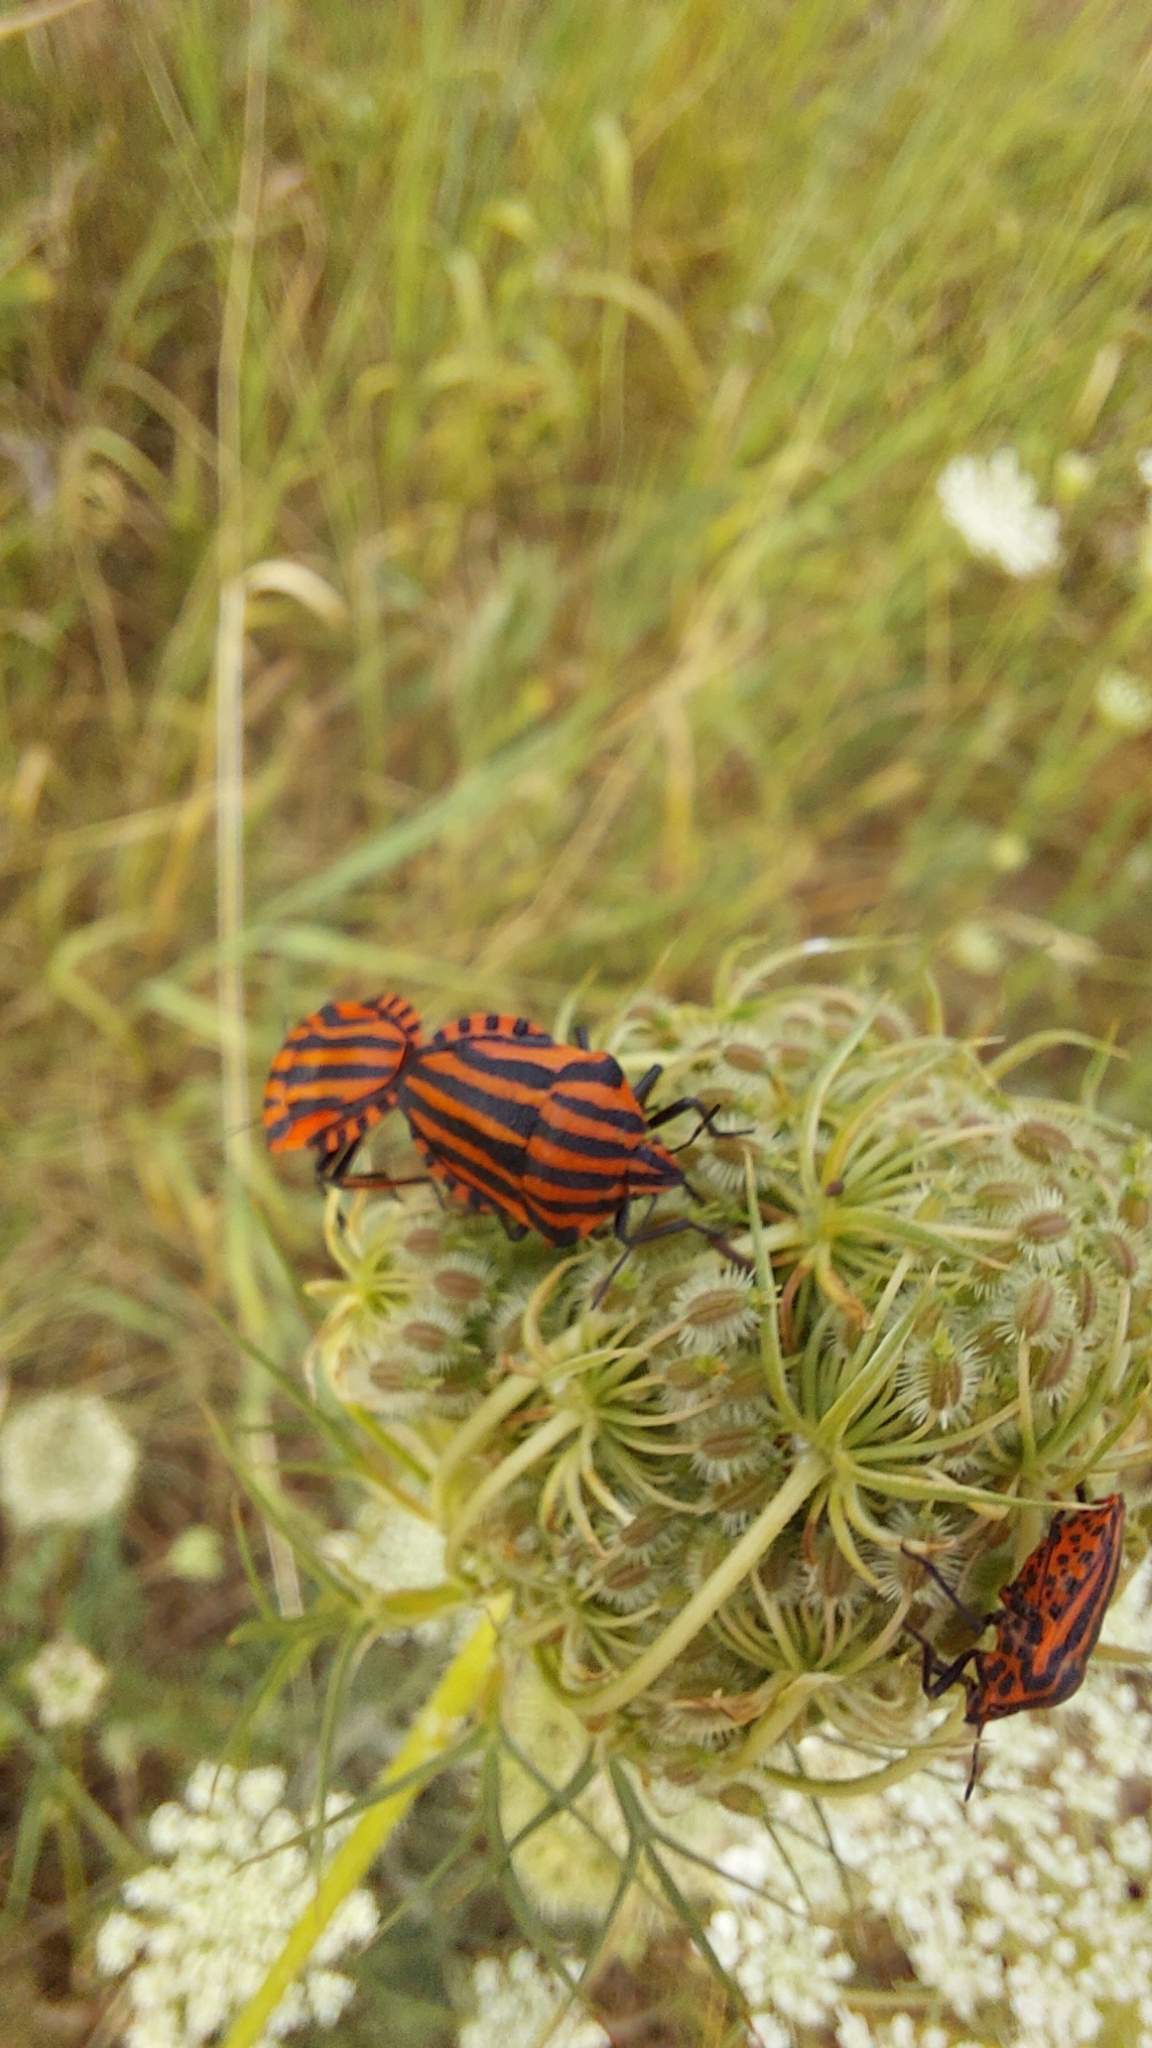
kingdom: Animalia
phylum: Arthropoda
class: Insecta
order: Hemiptera
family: Pentatomidae
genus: Graphosoma
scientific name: Graphosoma italicum
